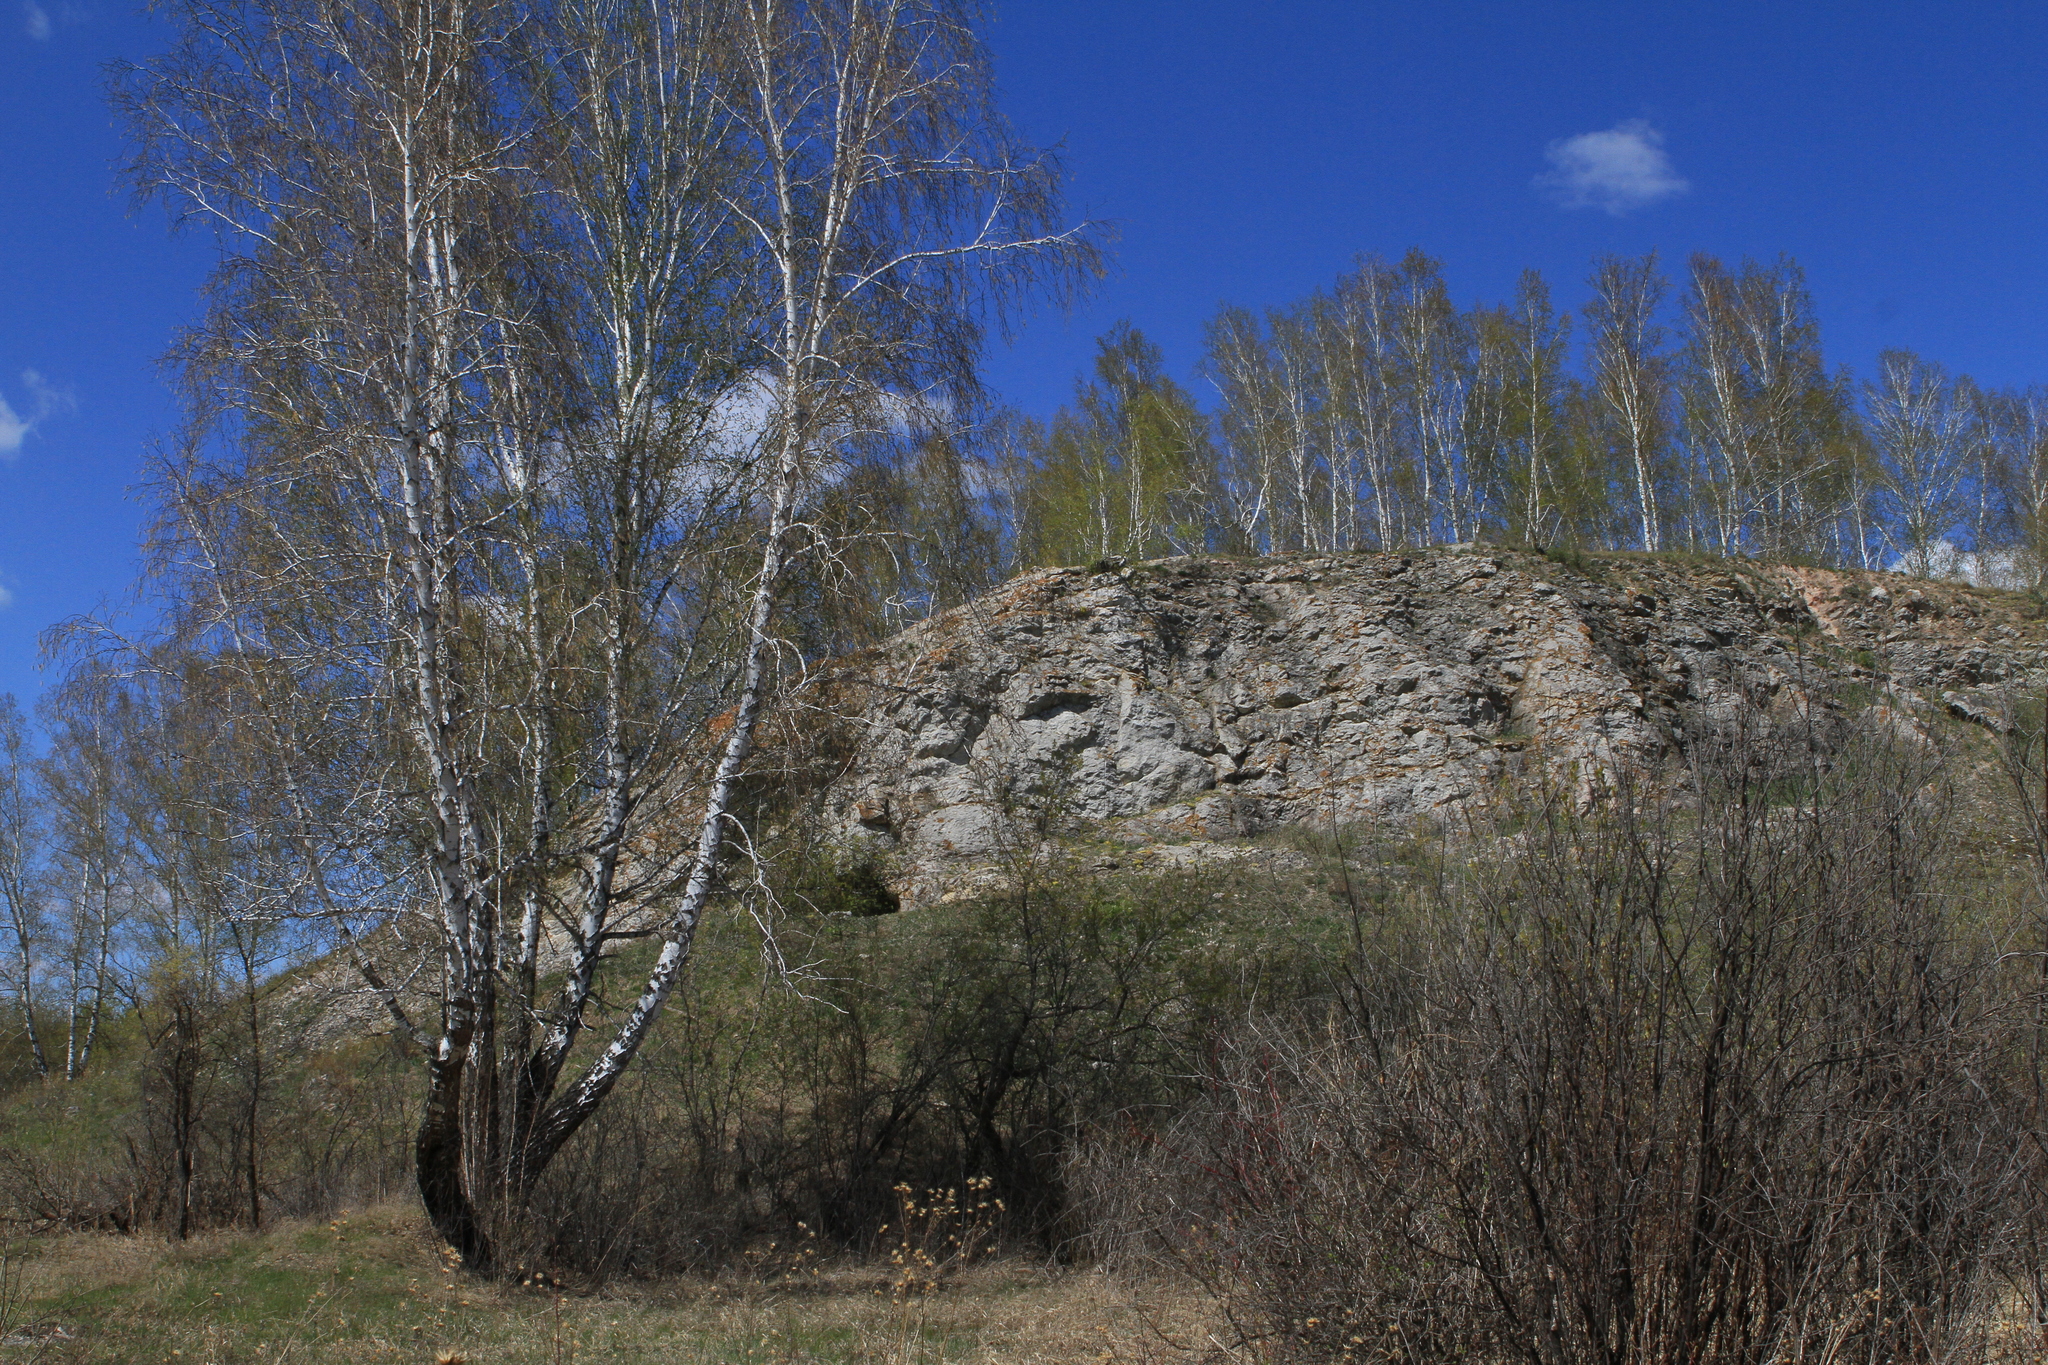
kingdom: Plantae
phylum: Tracheophyta
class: Magnoliopsida
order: Fagales
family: Betulaceae
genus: Betula
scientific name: Betula pendula
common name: Silver birch
